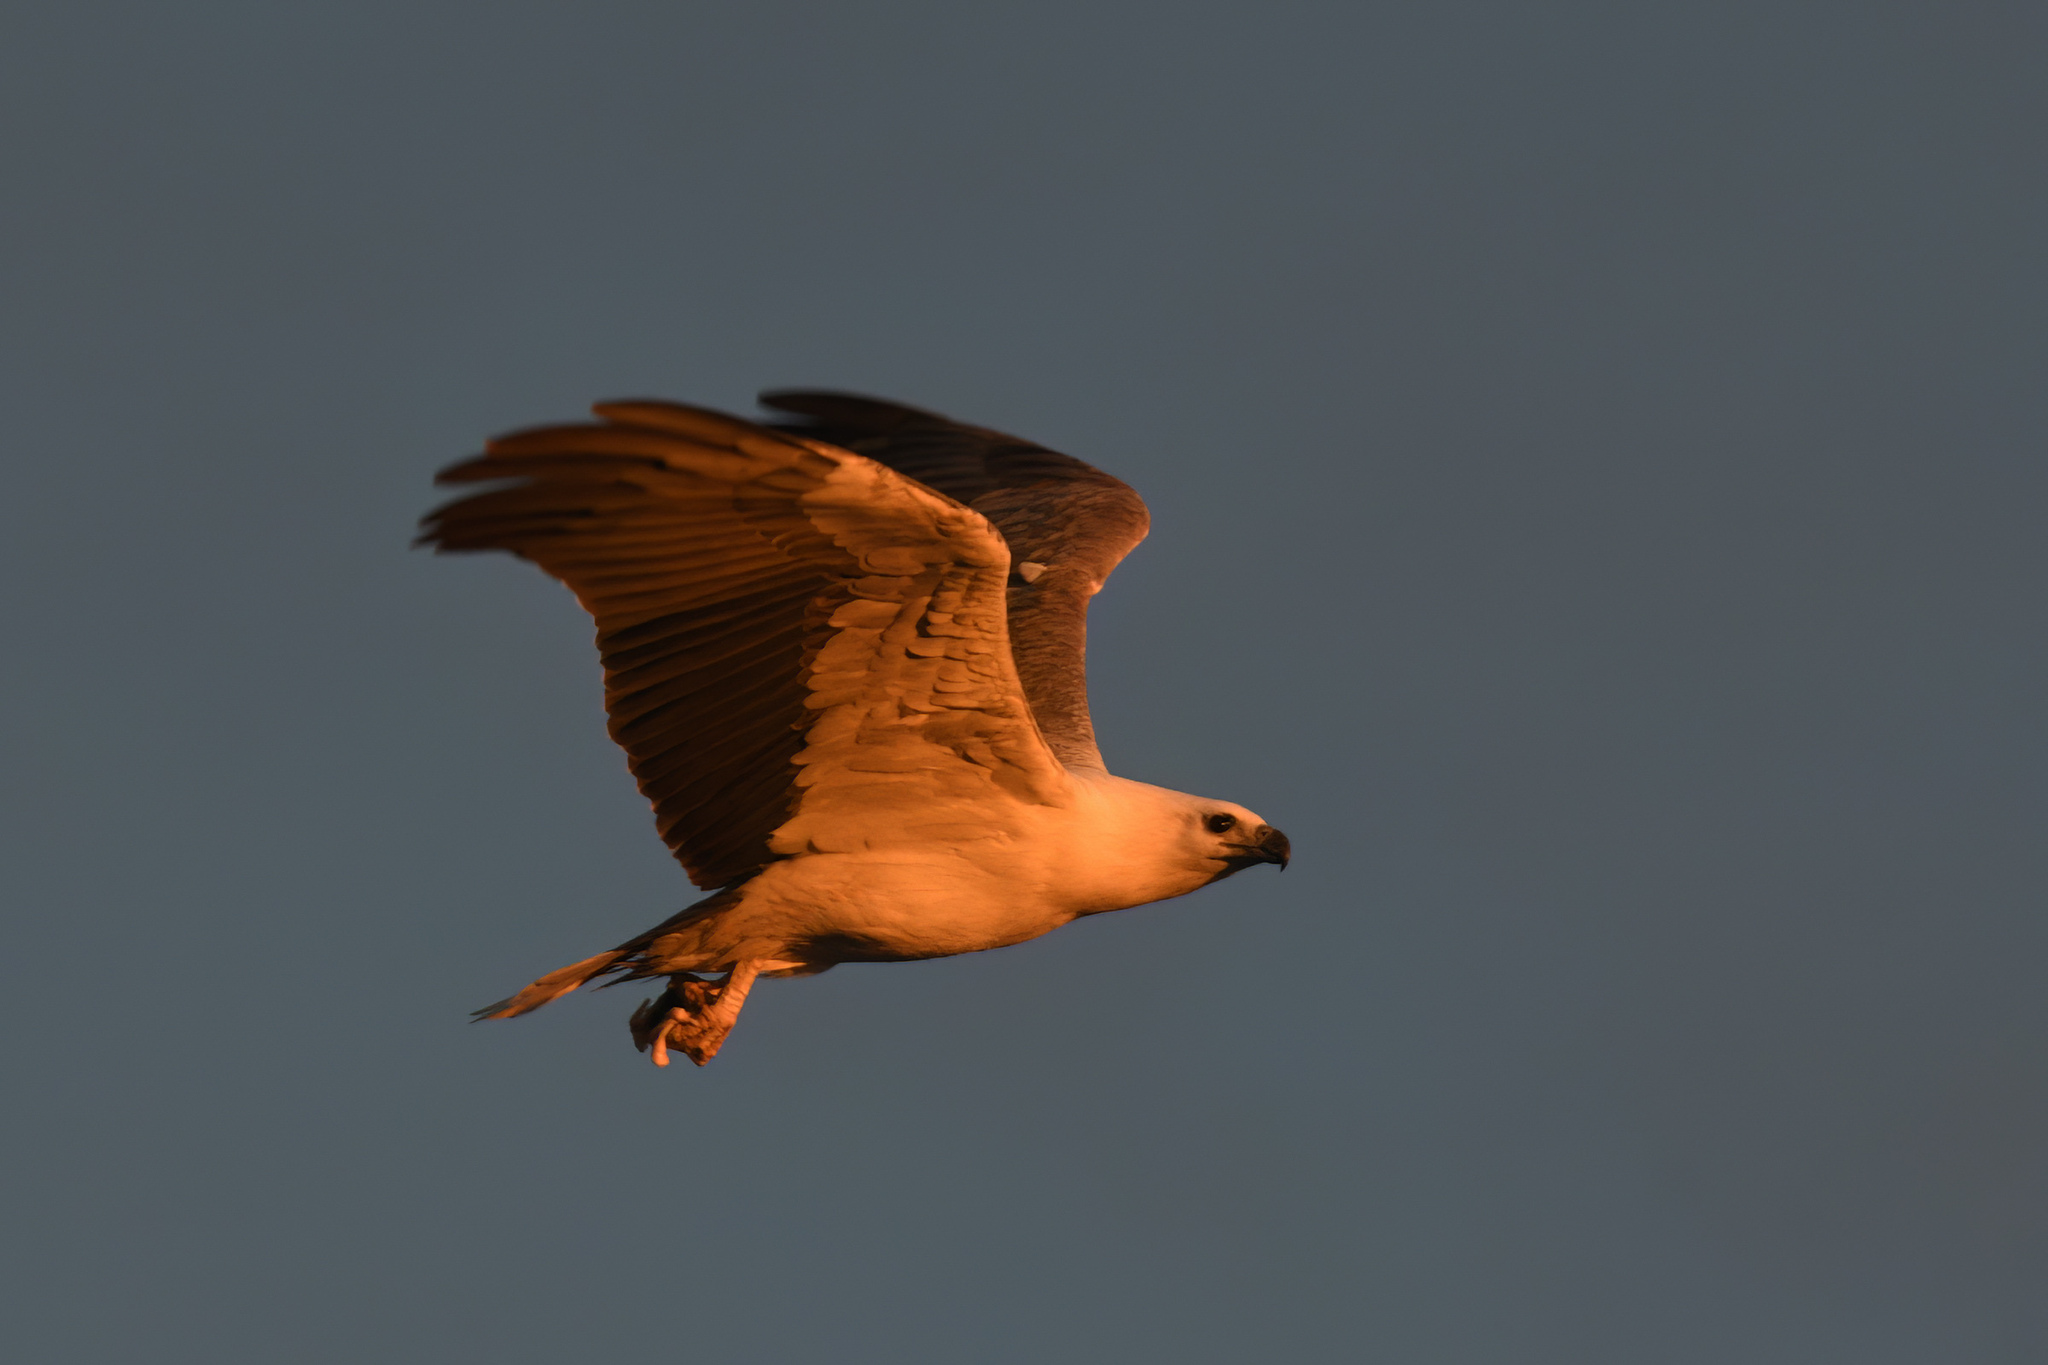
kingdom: Animalia
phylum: Chordata
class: Aves
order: Accipitriformes
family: Accipitridae
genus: Haliaeetus
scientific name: Haliaeetus leucogaster
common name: White-bellied sea eagle
